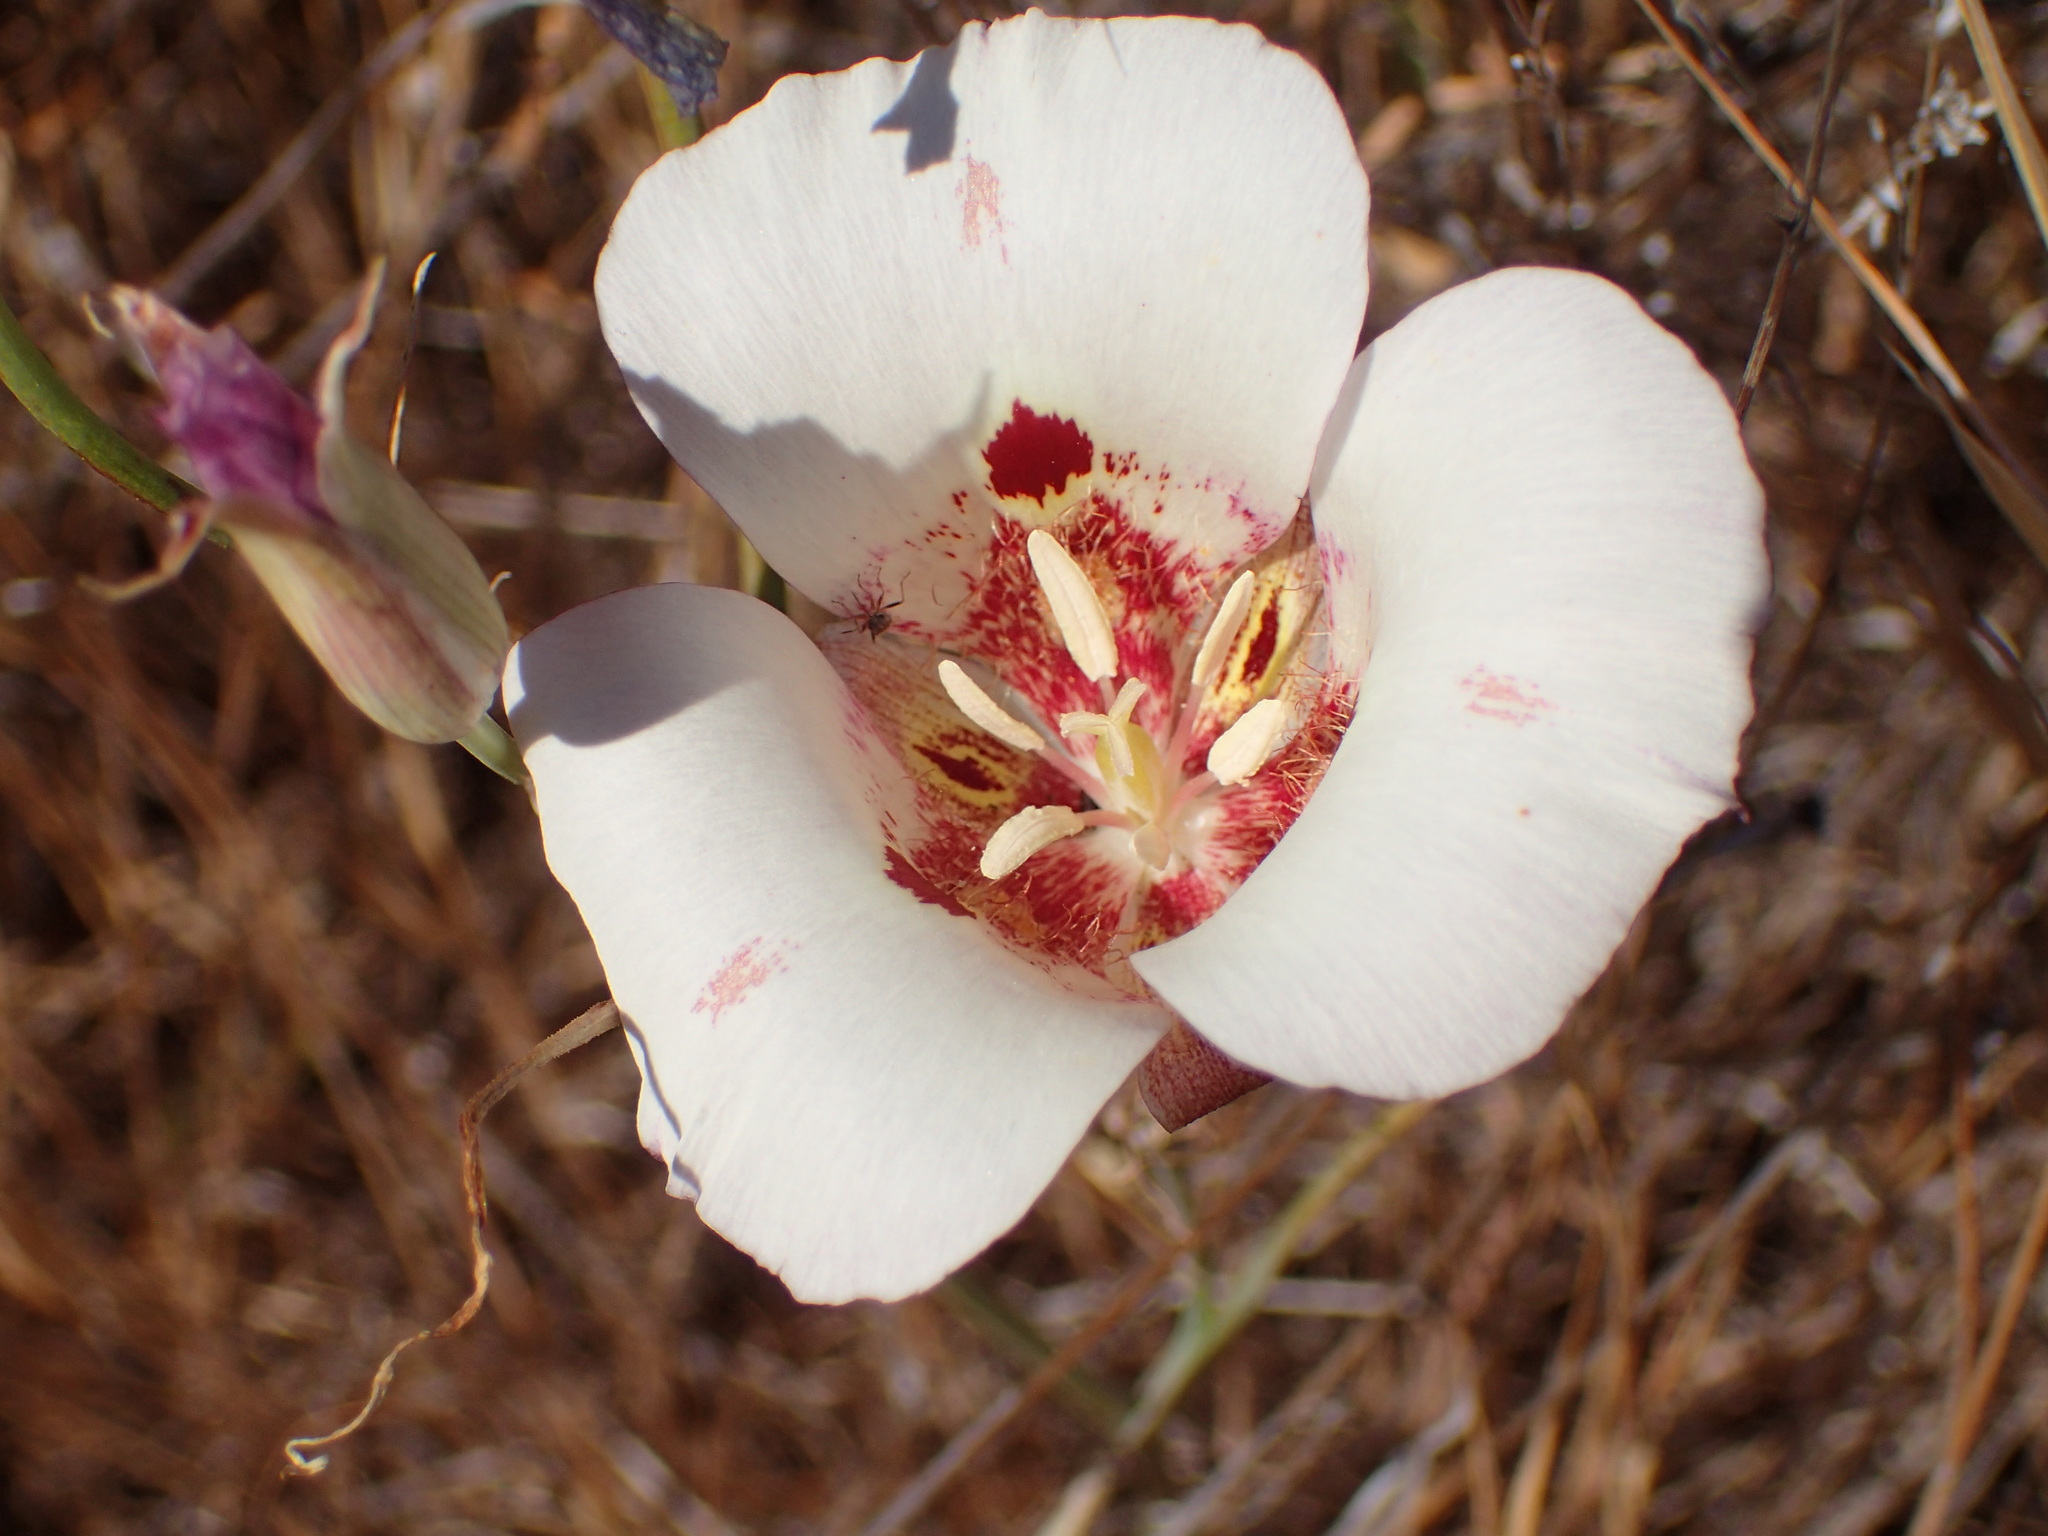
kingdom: Plantae
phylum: Tracheophyta
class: Liliopsida
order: Liliales
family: Liliaceae
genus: Calochortus
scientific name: Calochortus venustus
